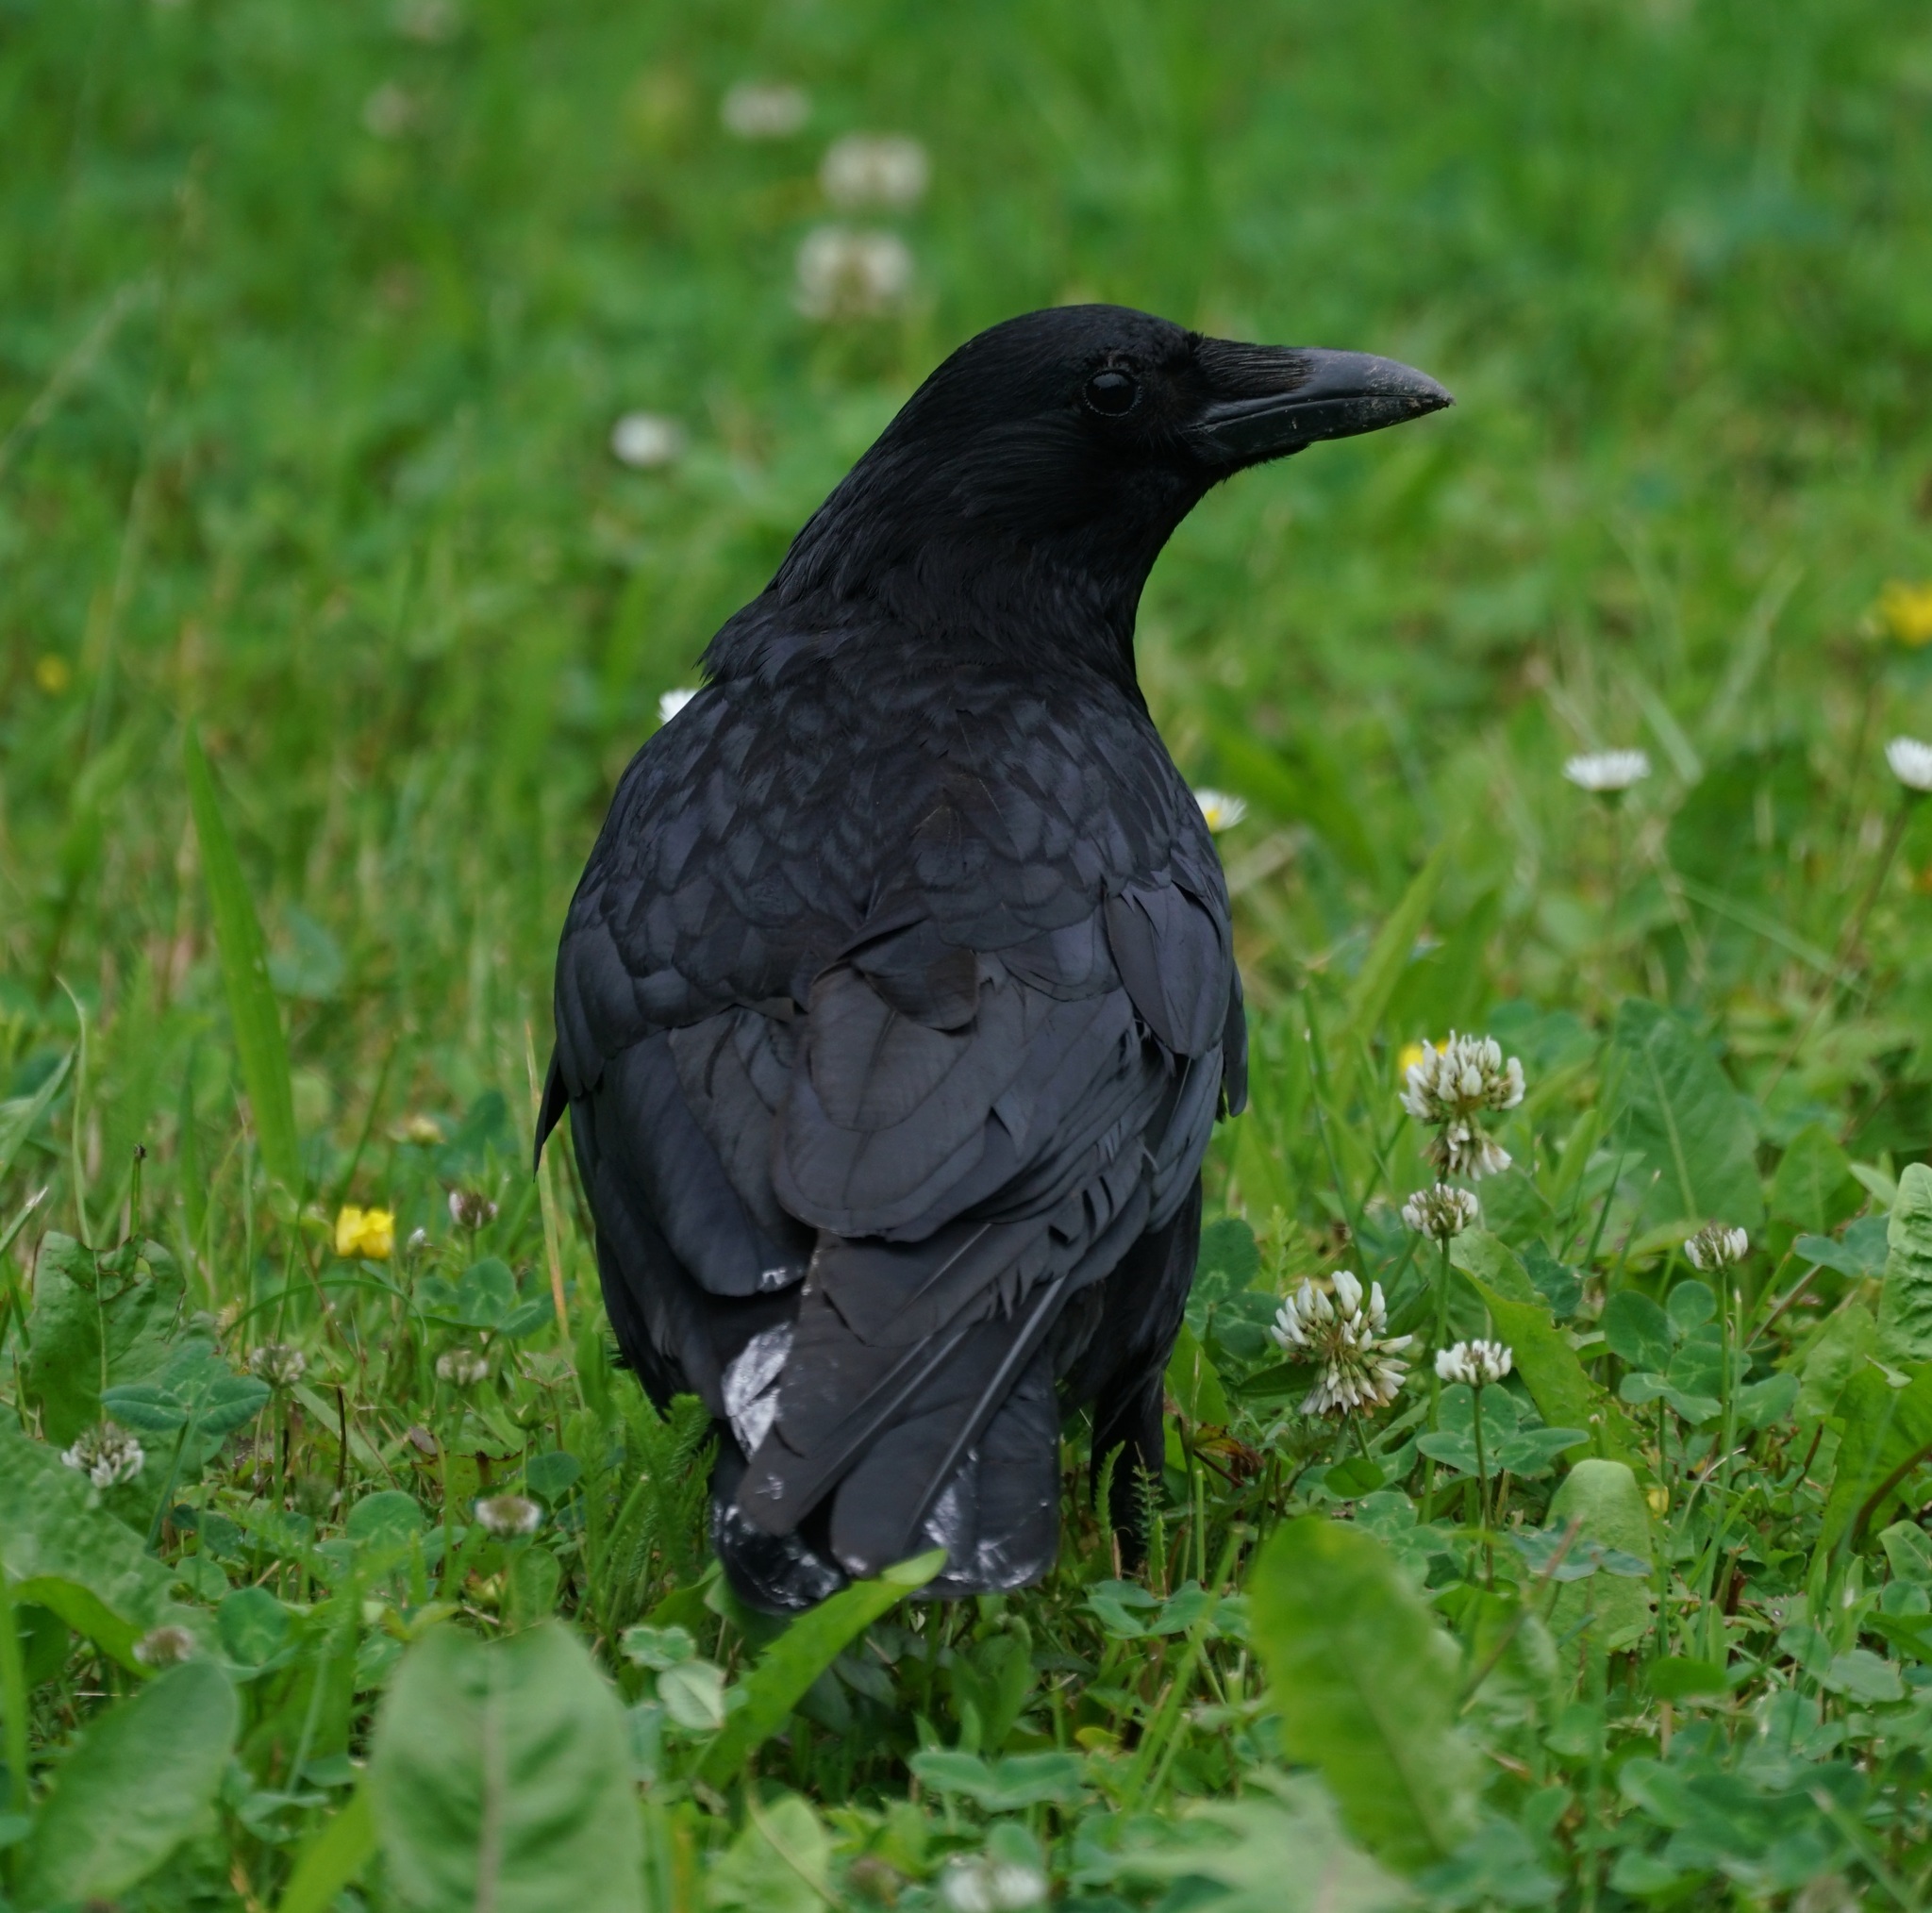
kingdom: Animalia
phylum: Chordata
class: Aves
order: Passeriformes
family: Corvidae
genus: Corvus
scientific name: Corvus corone
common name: Carrion crow
